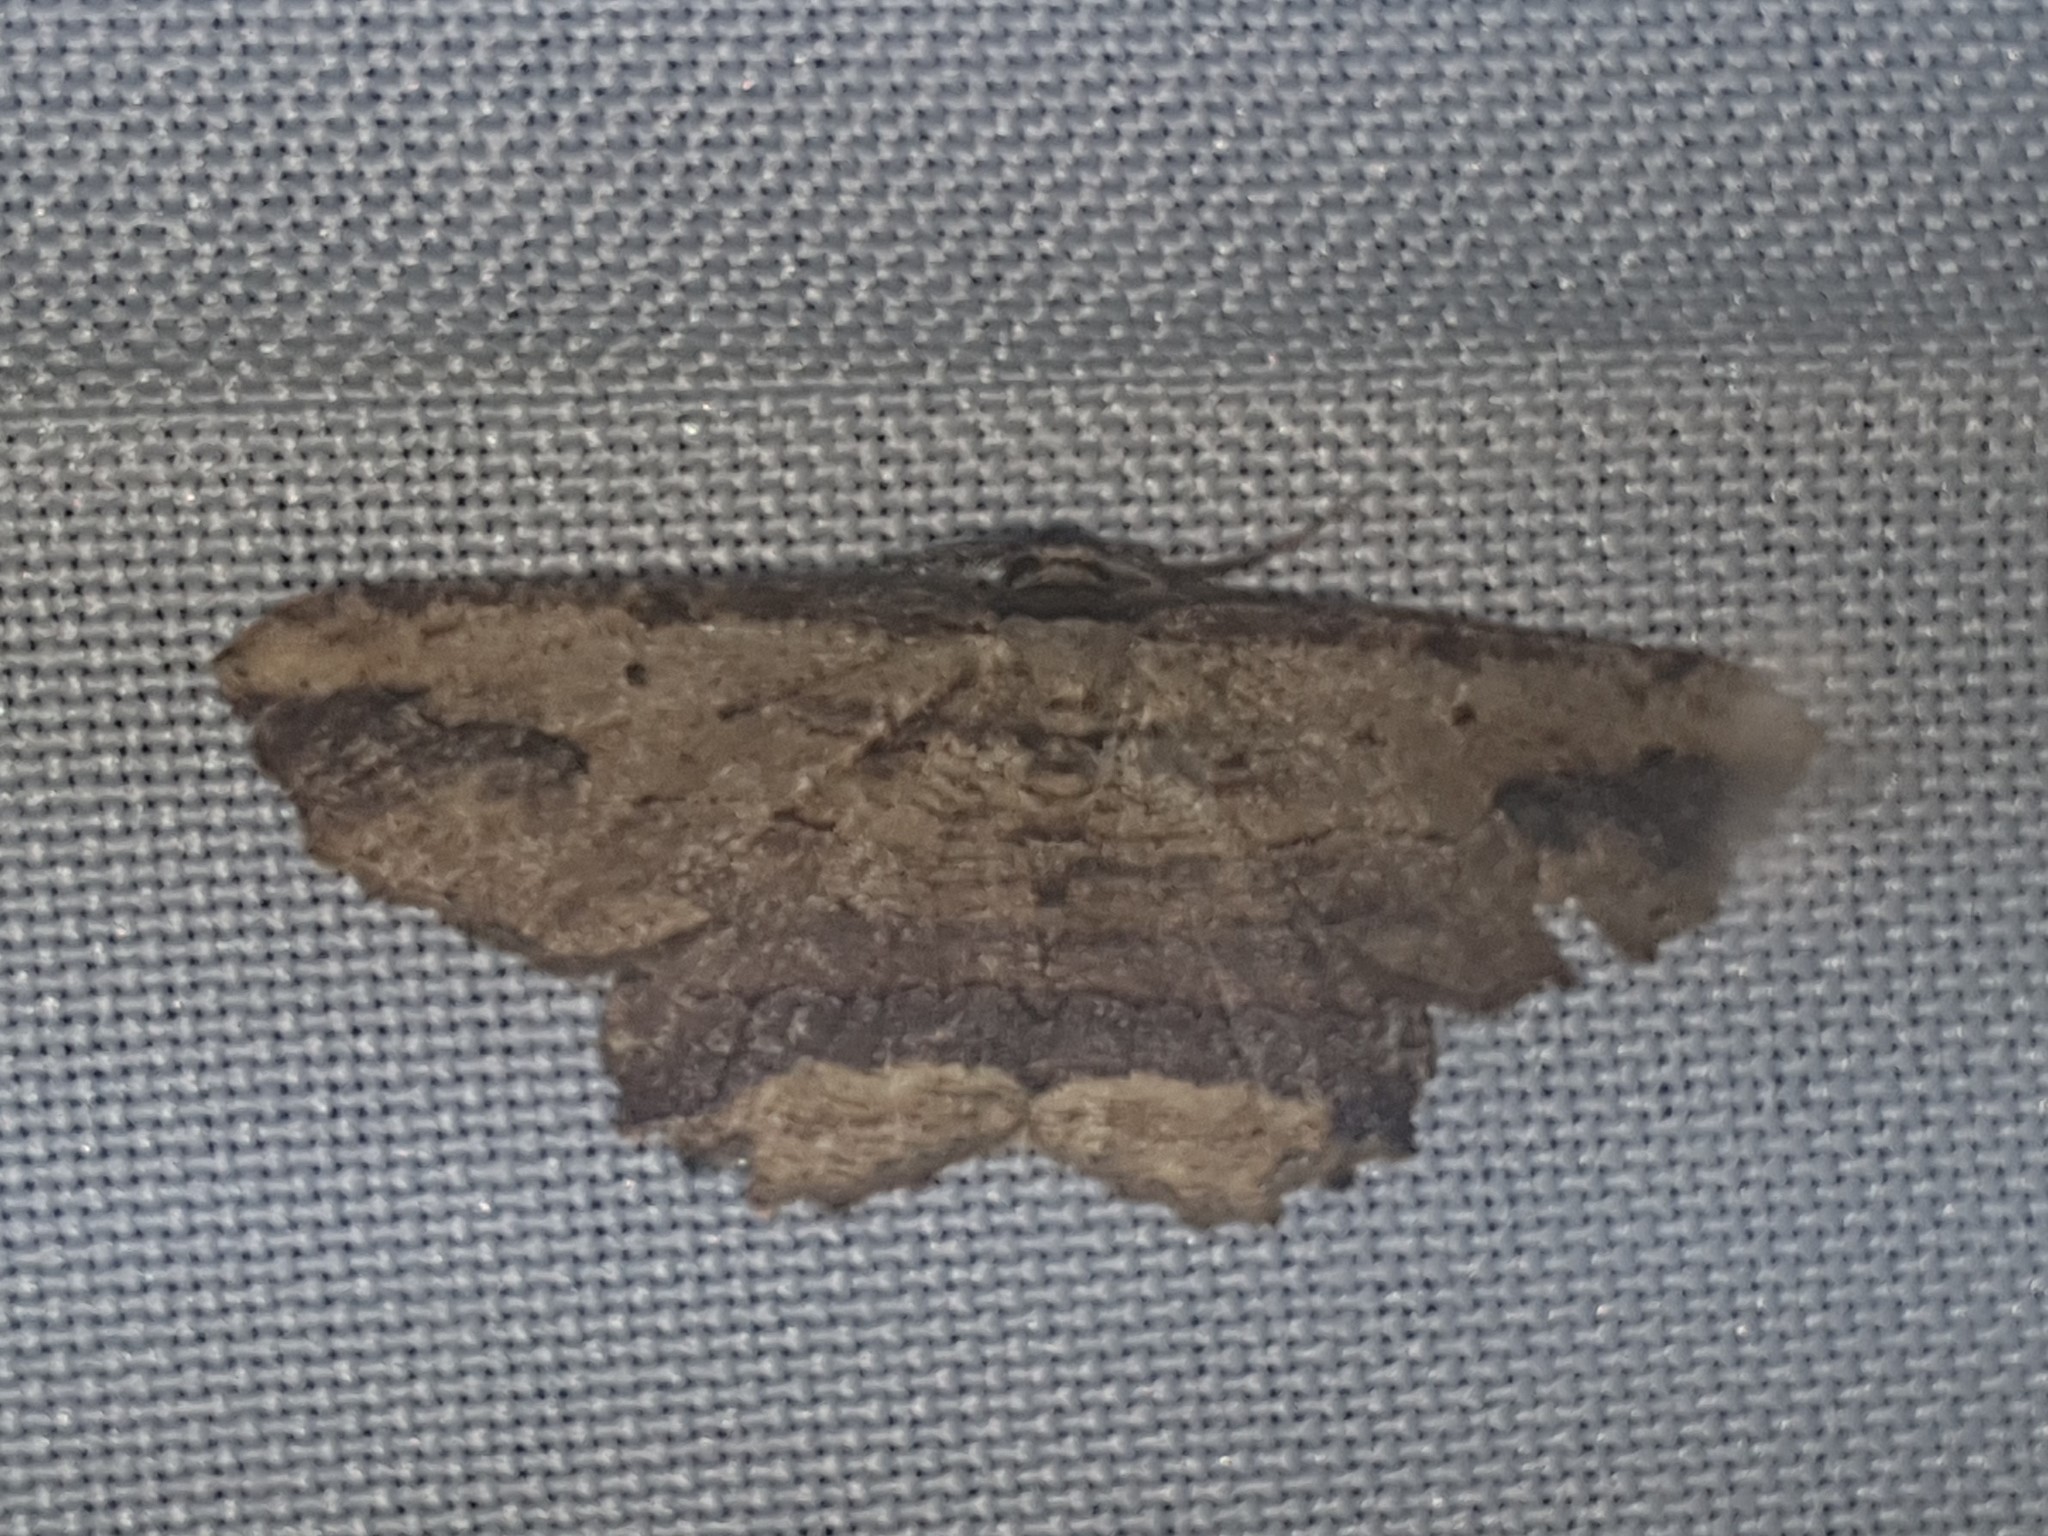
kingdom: Animalia
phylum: Arthropoda
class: Insecta
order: Lepidoptera
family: Geometridae
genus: Menophra
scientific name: Menophra abruptaria
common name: Waved umber
